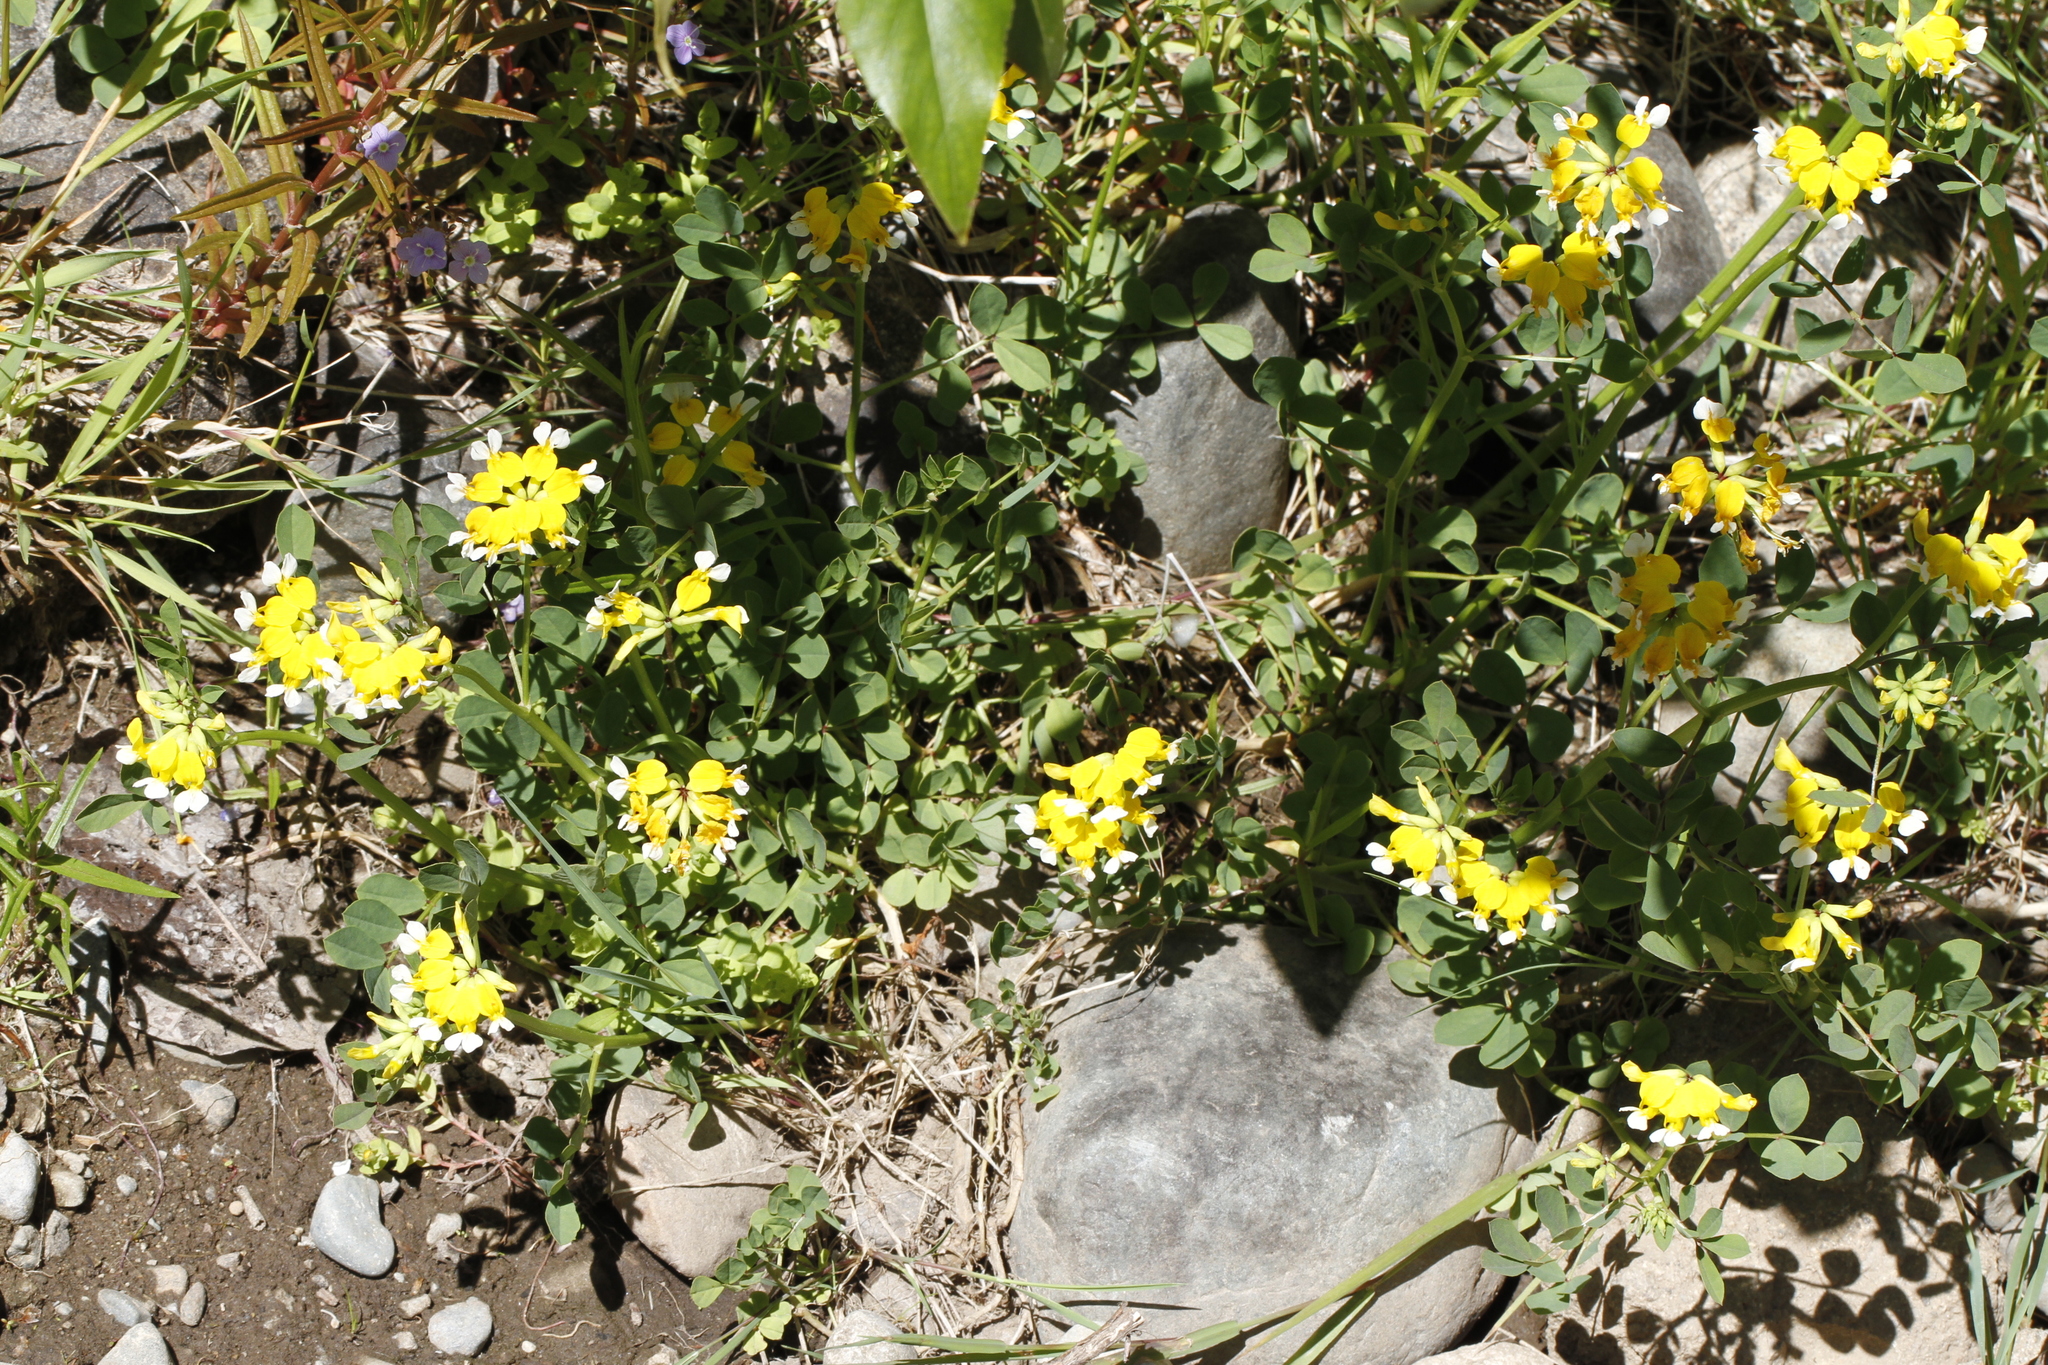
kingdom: Plantae
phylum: Tracheophyta
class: Magnoliopsida
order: Fabales
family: Fabaceae
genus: Hosackia
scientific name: Hosackia pinnata
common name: Bog bird's-foot trefoil
